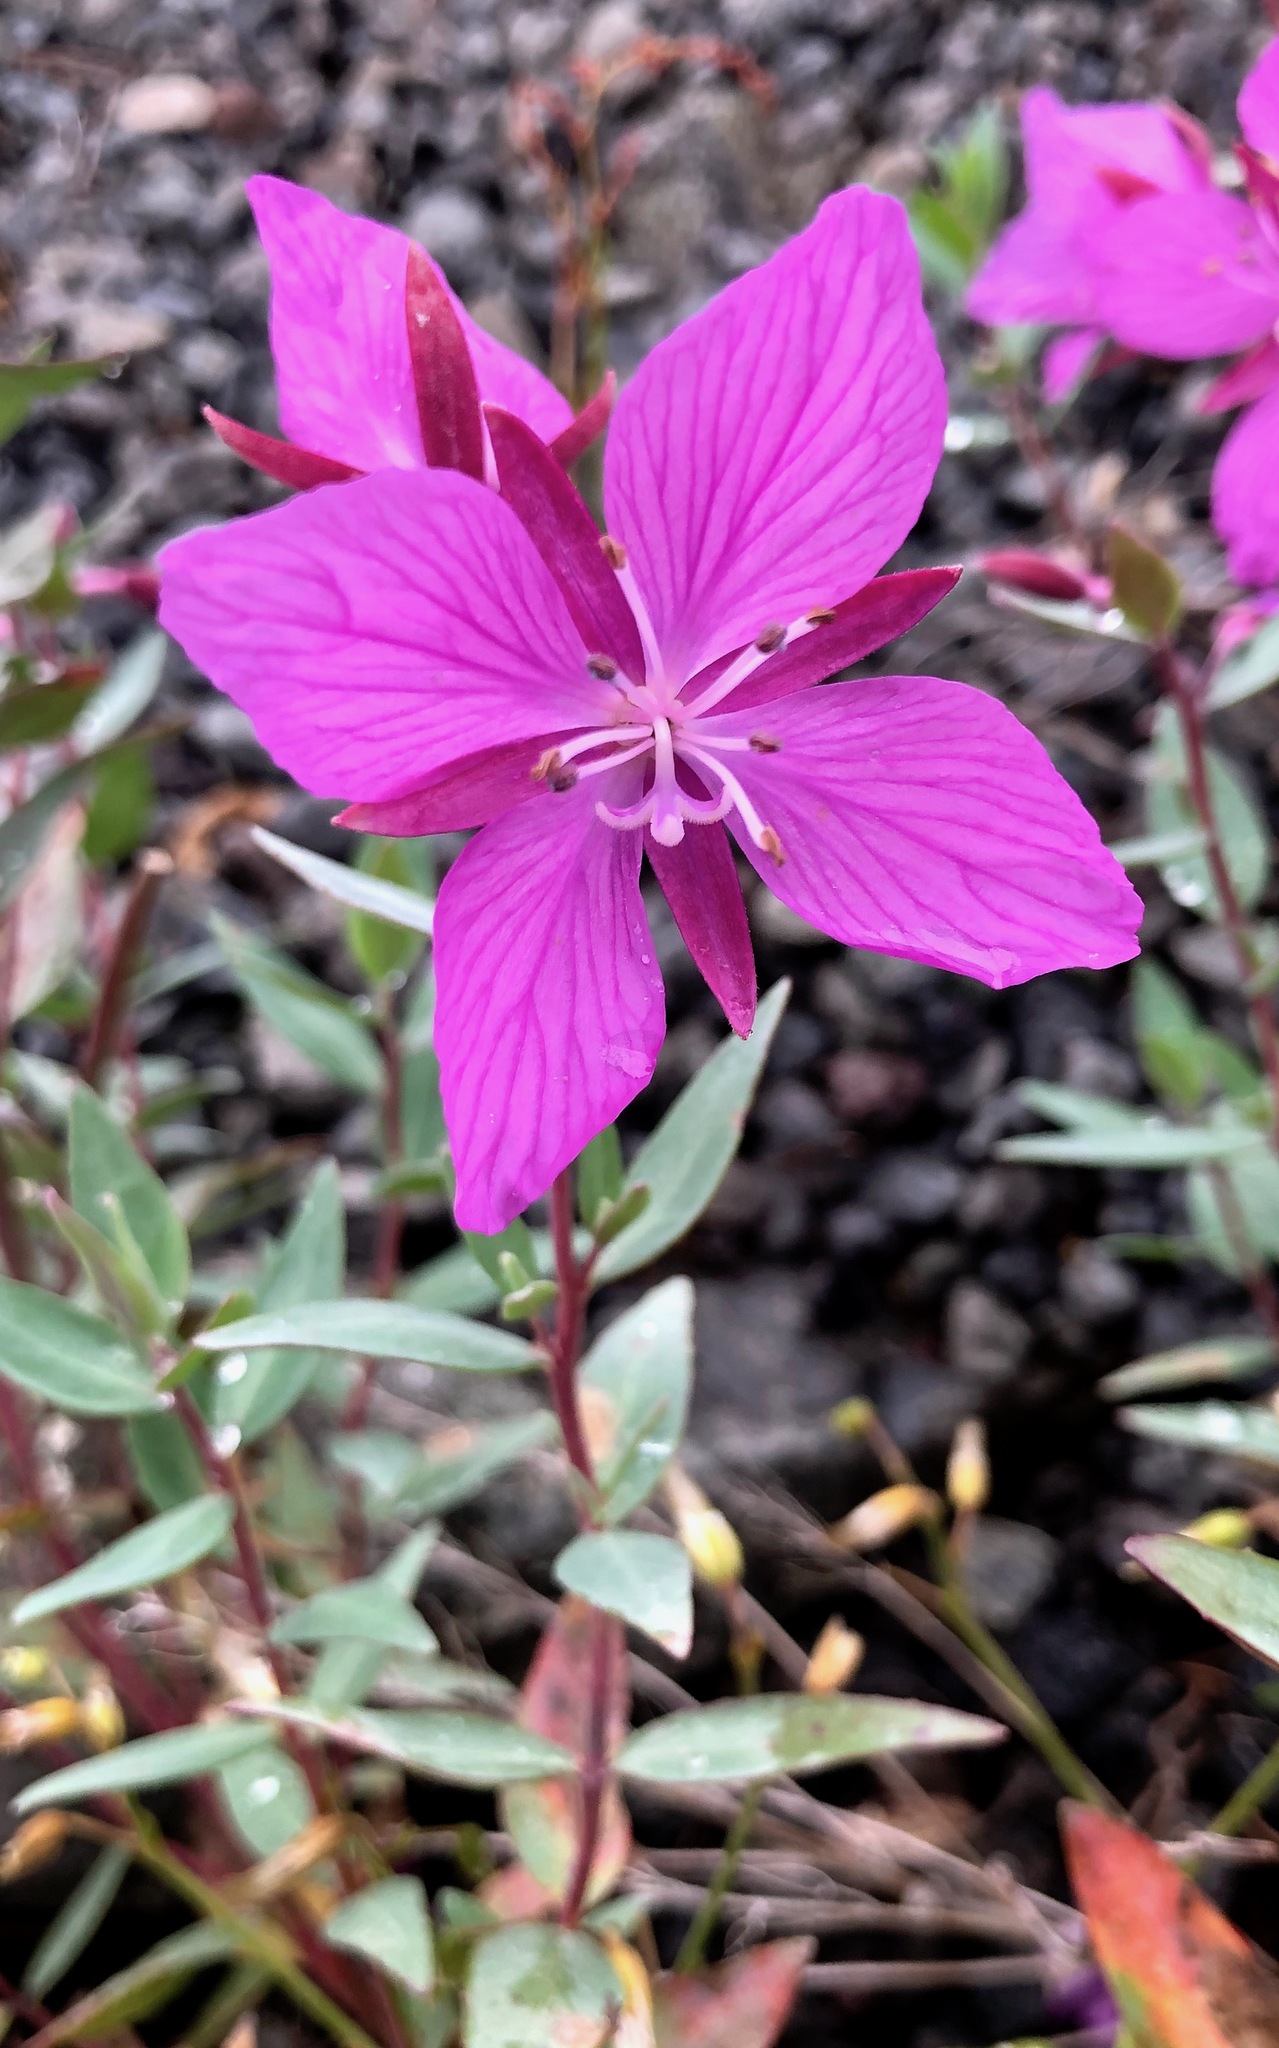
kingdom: Plantae
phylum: Tracheophyta
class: Magnoliopsida
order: Myrtales
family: Onagraceae
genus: Chamaenerion
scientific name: Chamaenerion latifolium
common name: Dwarf fireweed
